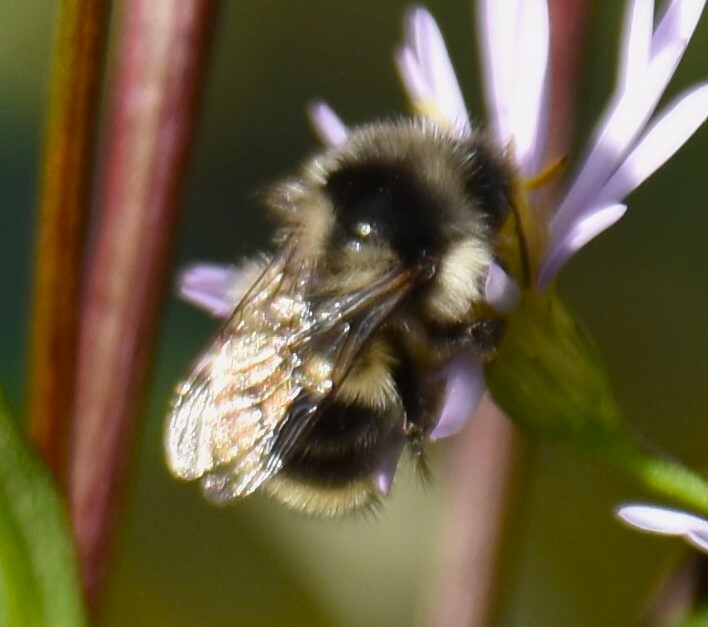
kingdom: Animalia
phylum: Arthropoda
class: Insecta
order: Hymenoptera
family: Apidae
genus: Bombus
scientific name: Bombus vancouverensis
